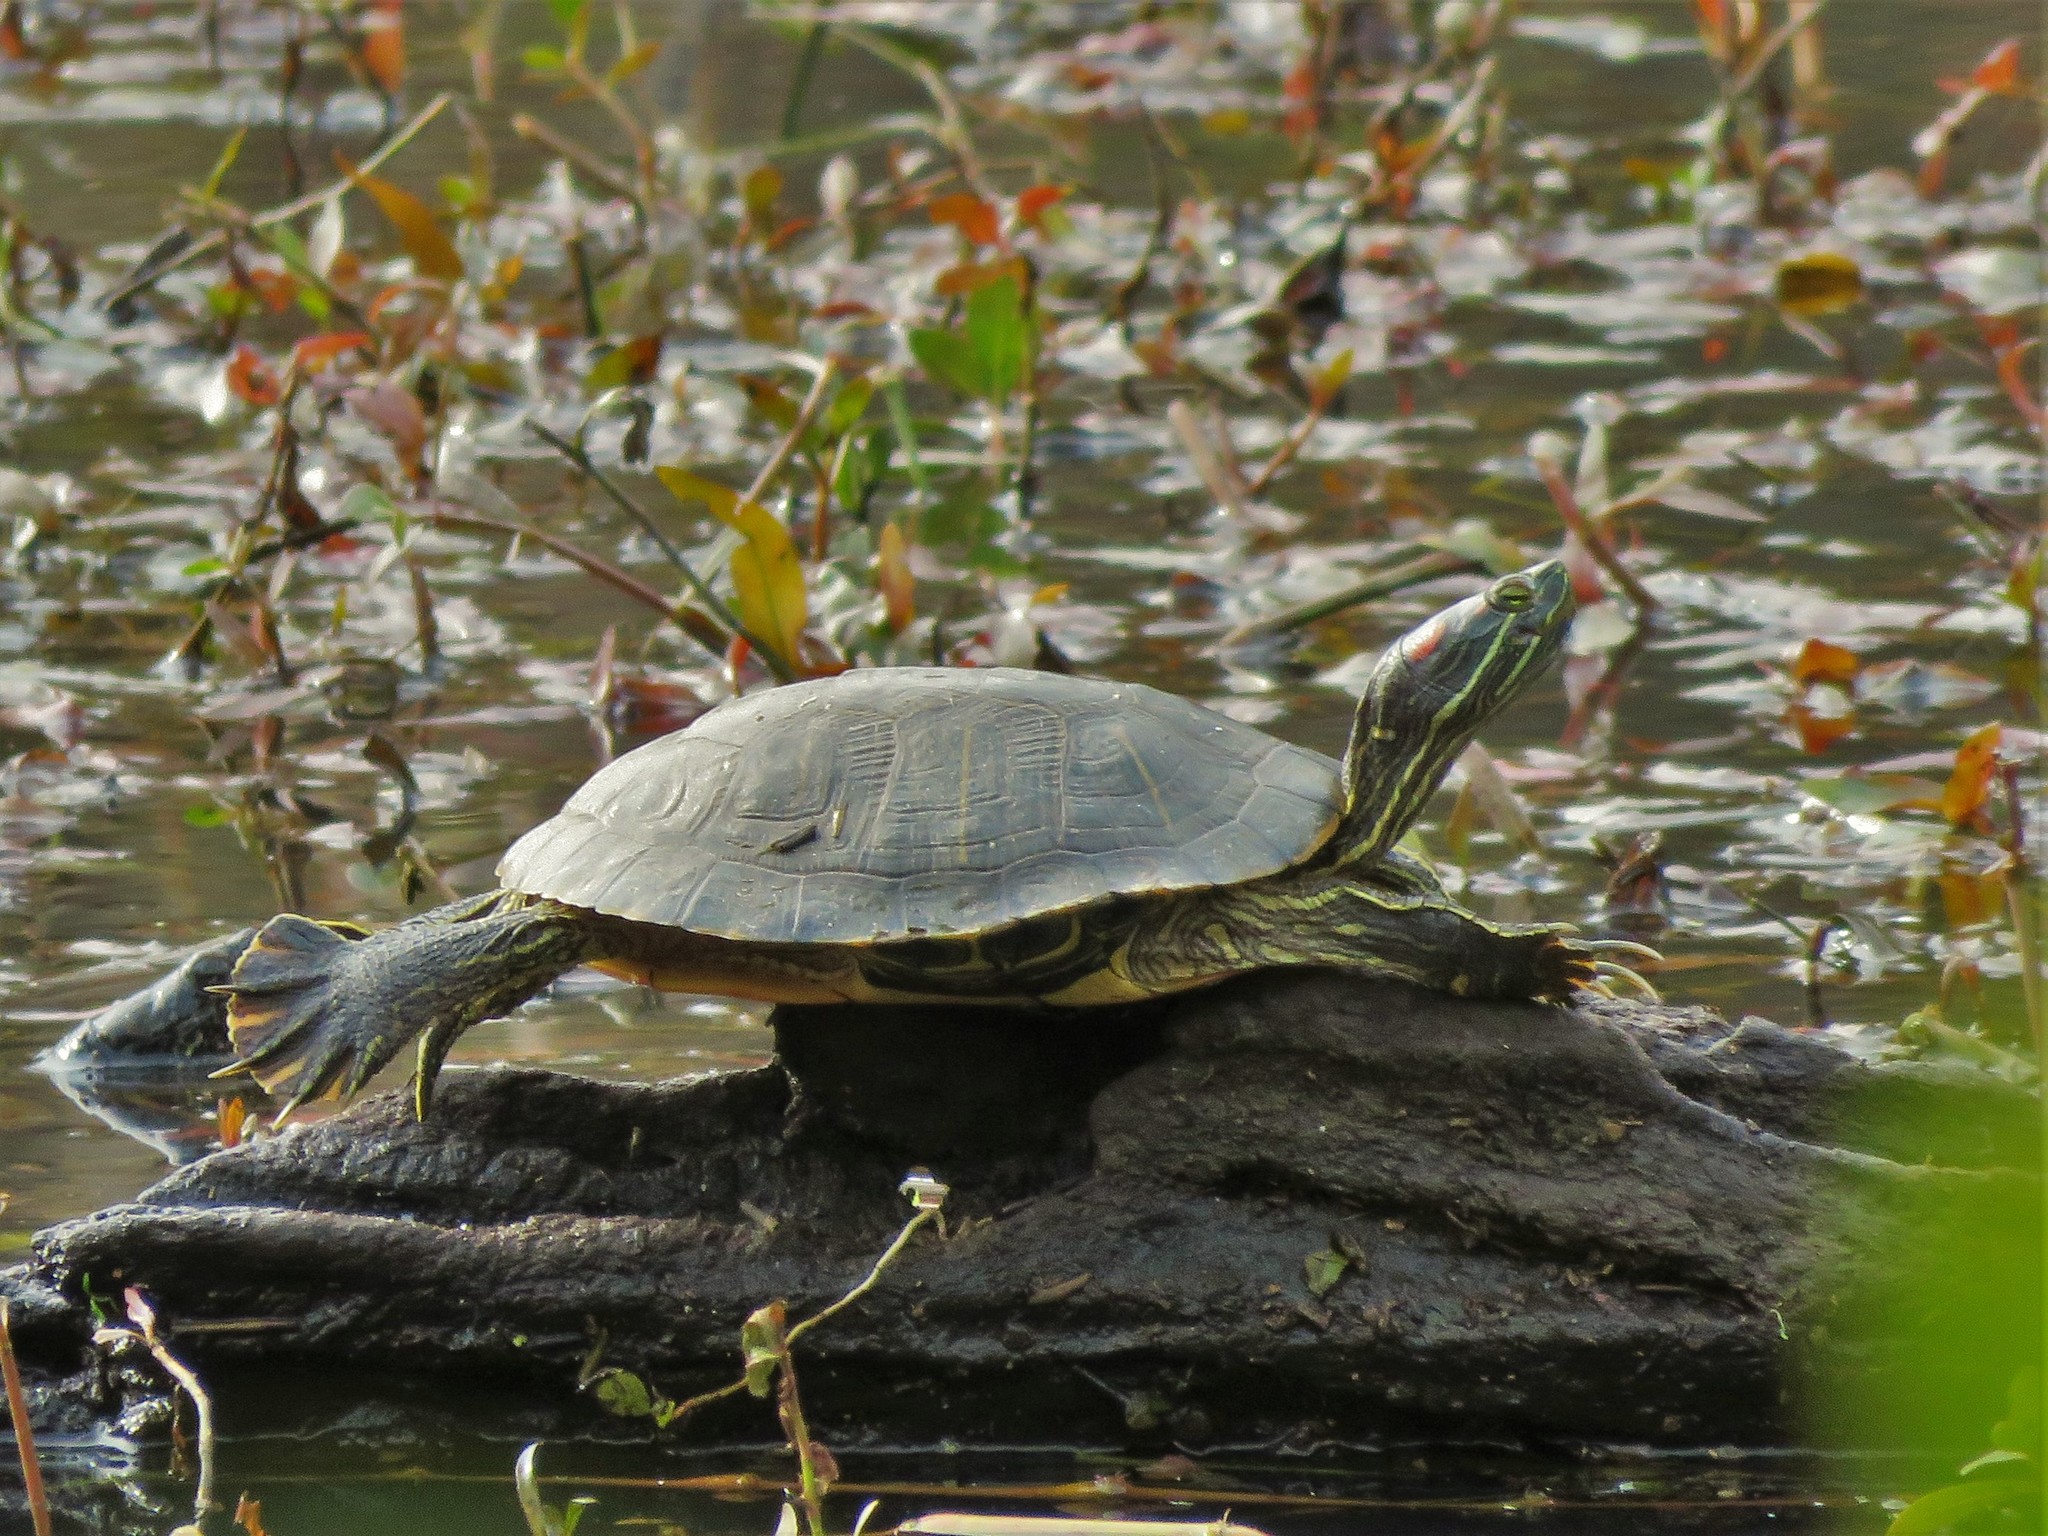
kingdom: Animalia
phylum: Chordata
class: Testudines
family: Emydidae
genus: Trachemys
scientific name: Trachemys scripta
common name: Slider
